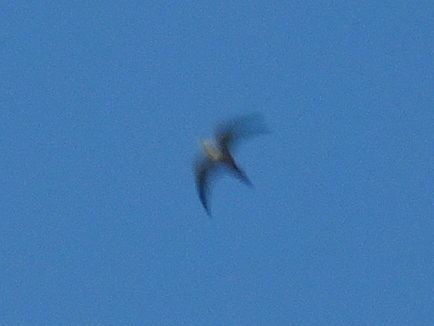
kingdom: Animalia
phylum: Chordata
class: Aves
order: Apodiformes
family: Apodidae
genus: Tachymarptis
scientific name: Tachymarptis melba
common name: Alpine swift
